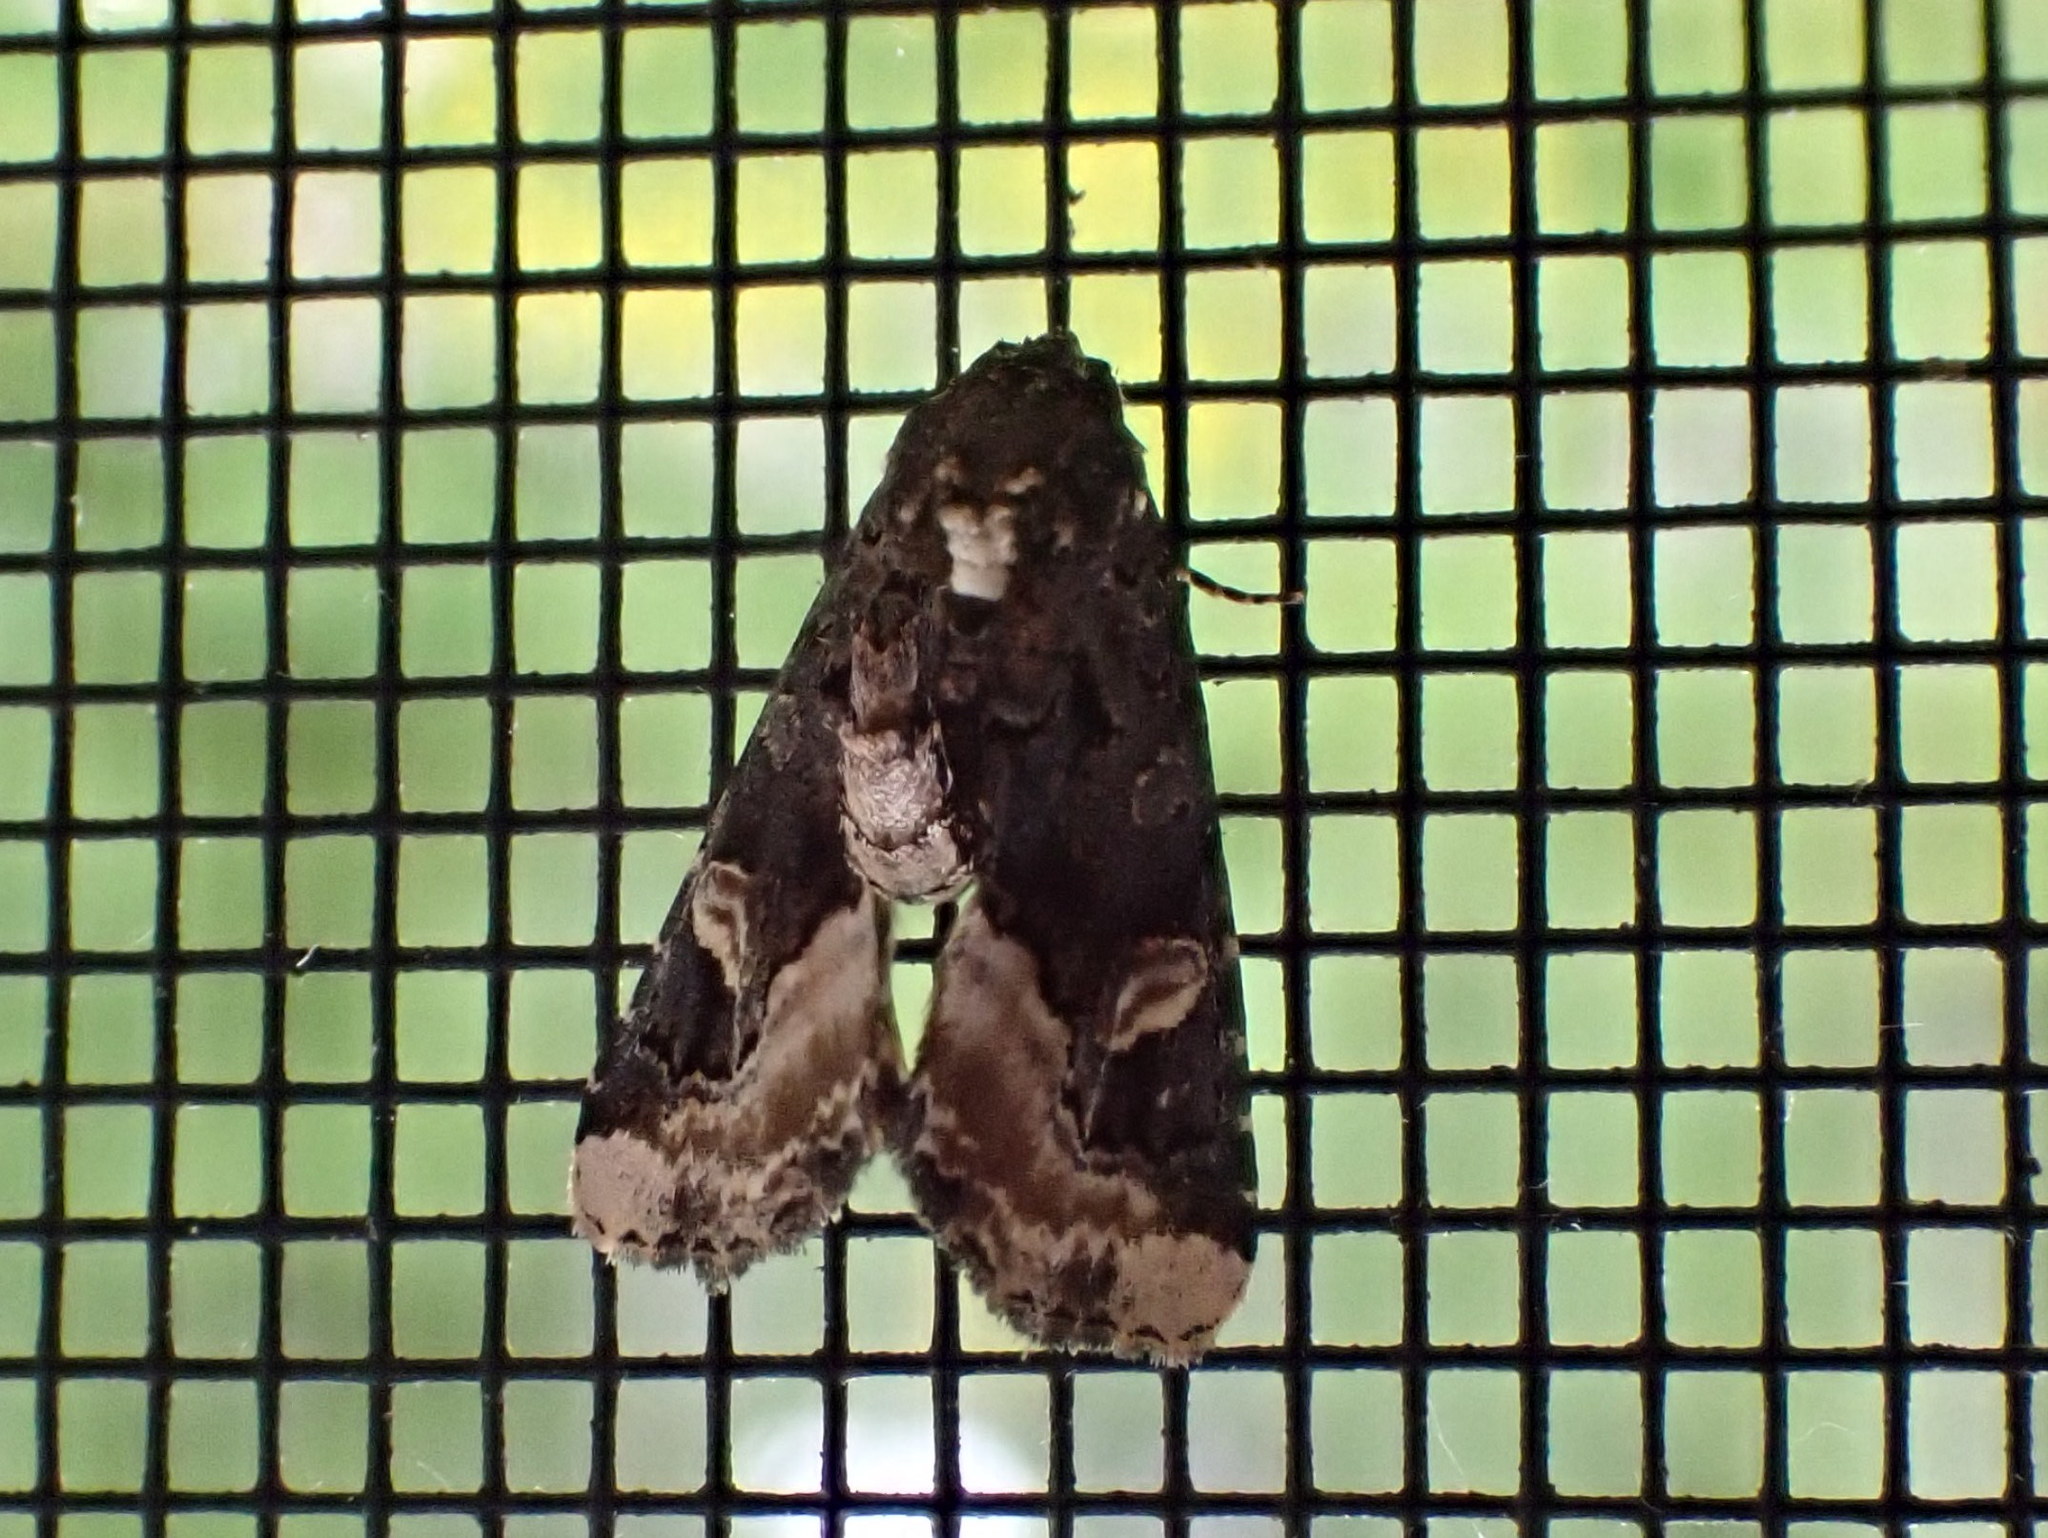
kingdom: Animalia
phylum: Arthropoda
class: Insecta
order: Lepidoptera
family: Noctuidae
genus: Homophoberia
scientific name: Homophoberia apicosa
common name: Black wedge-spot
